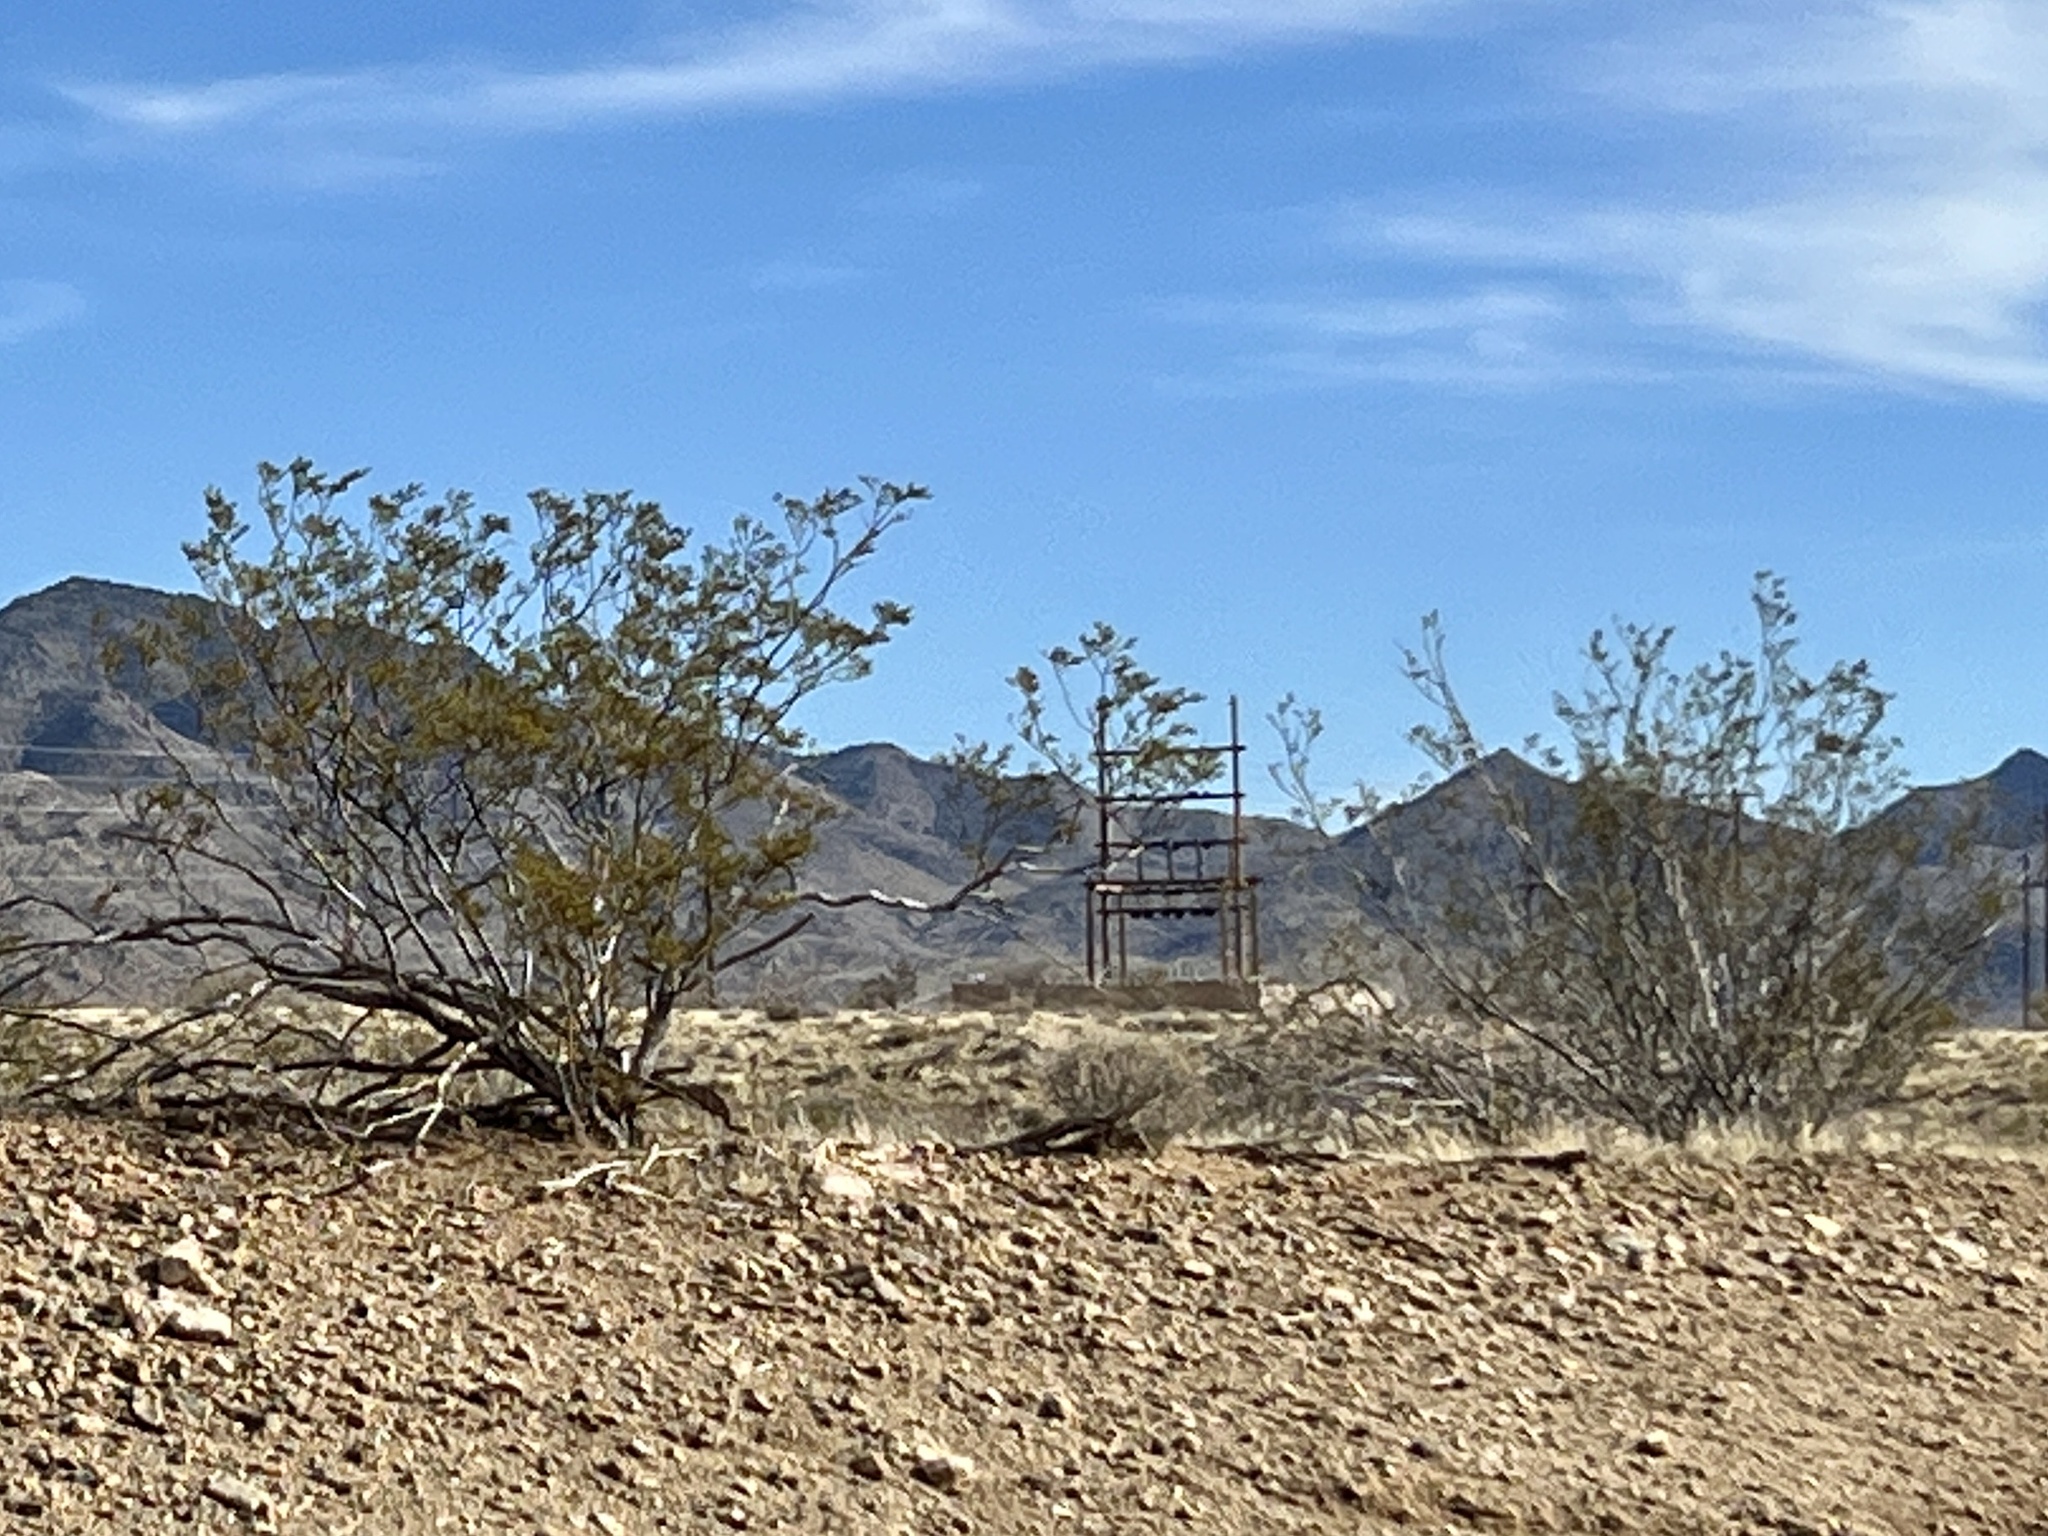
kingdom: Plantae
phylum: Tracheophyta
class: Magnoliopsida
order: Zygophyllales
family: Zygophyllaceae
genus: Larrea
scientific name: Larrea tridentata
